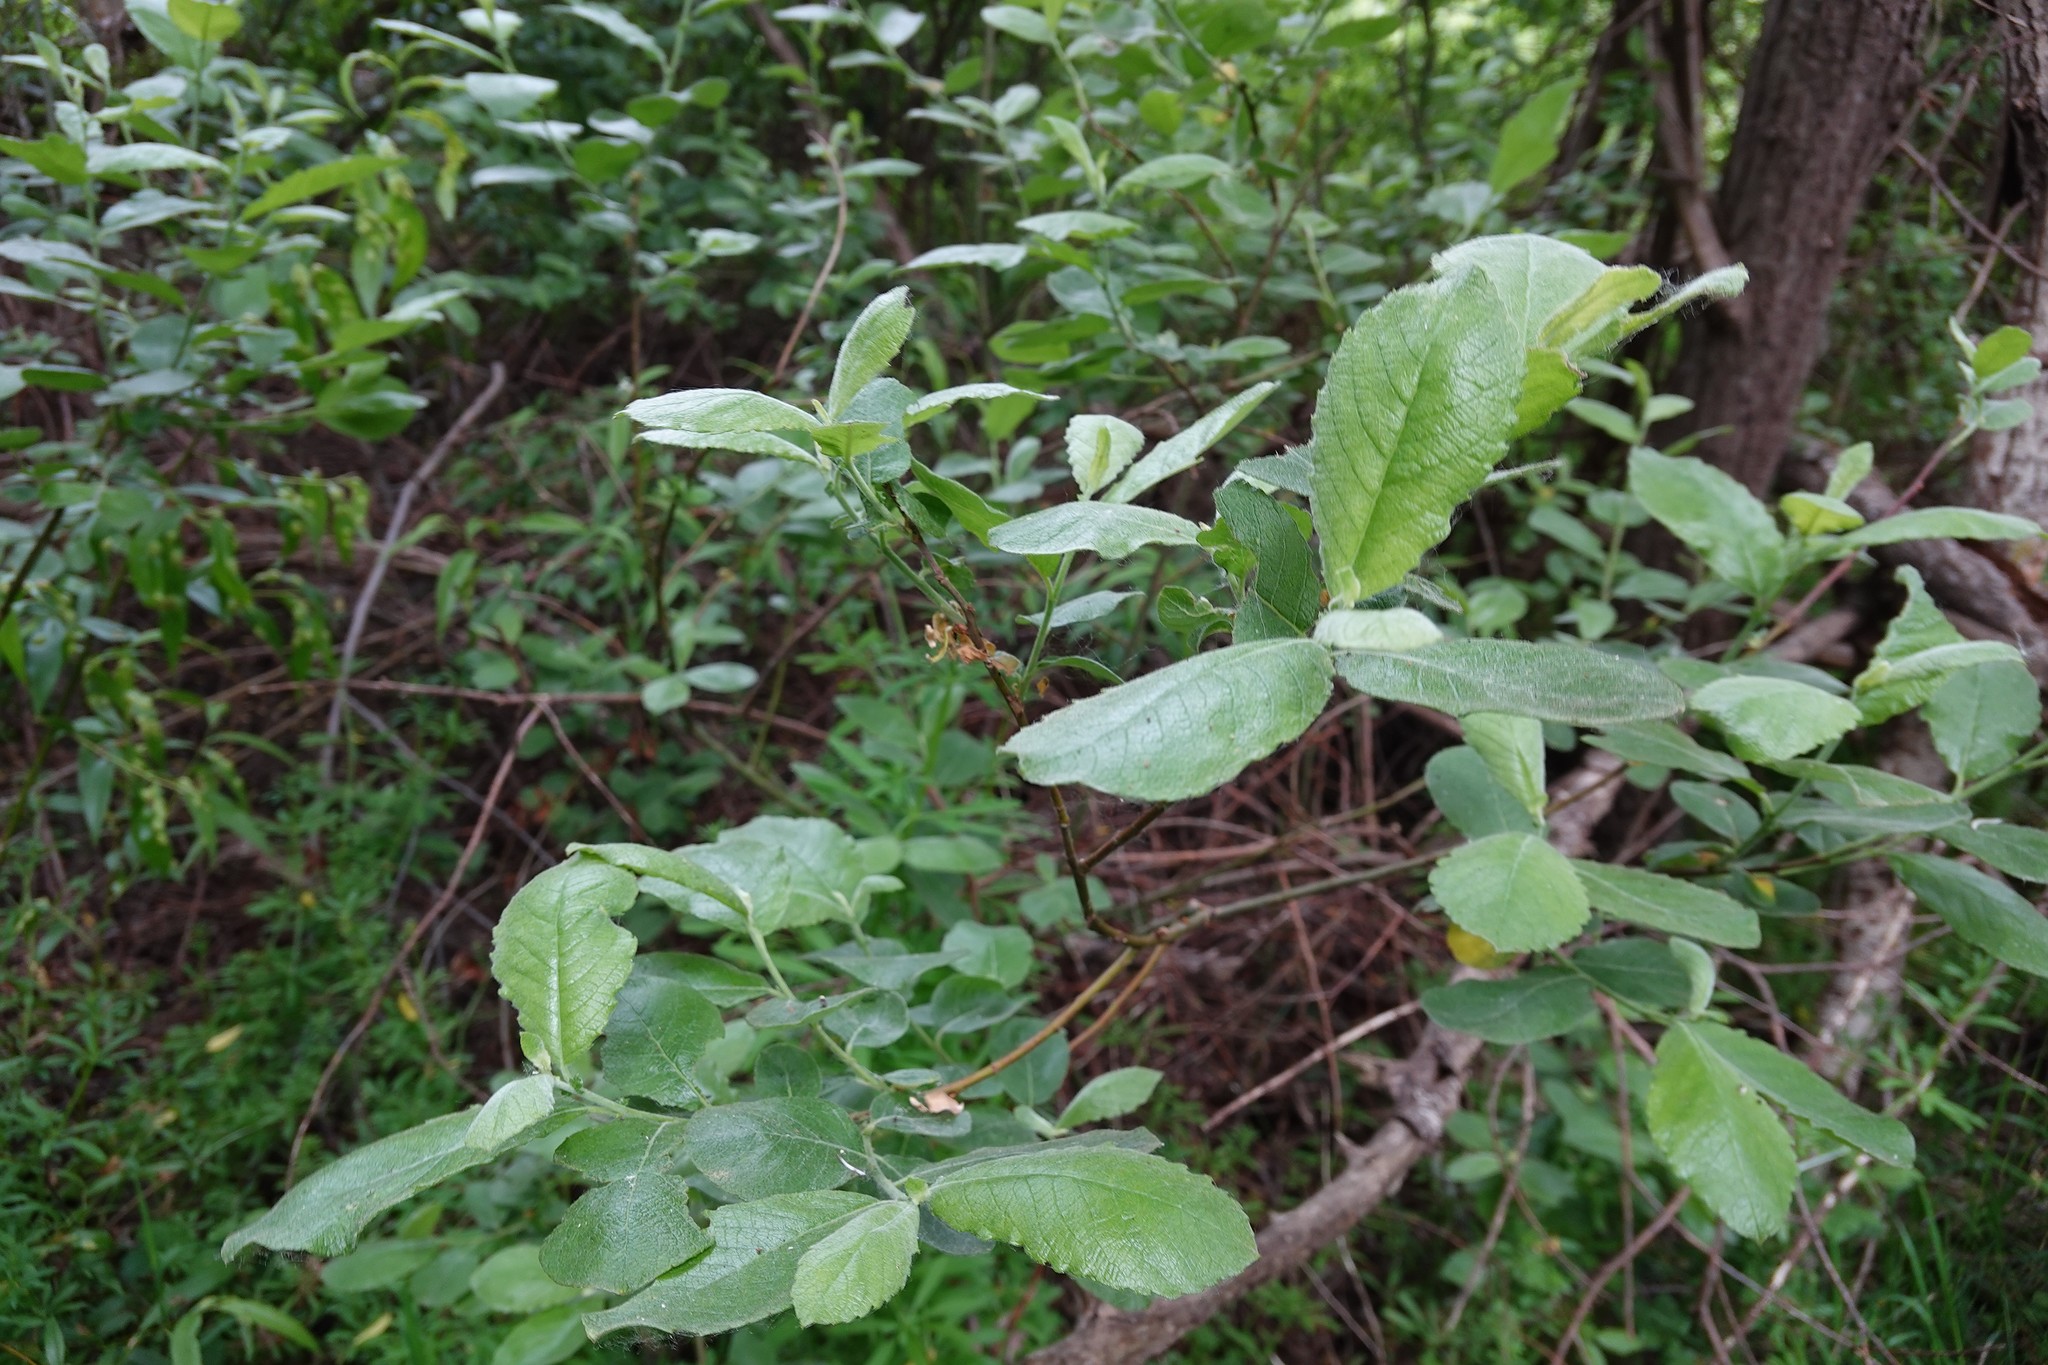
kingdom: Plantae
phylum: Tracheophyta
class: Magnoliopsida
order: Malpighiales
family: Salicaceae
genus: Salix
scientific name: Salix cinerea
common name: Common sallow
